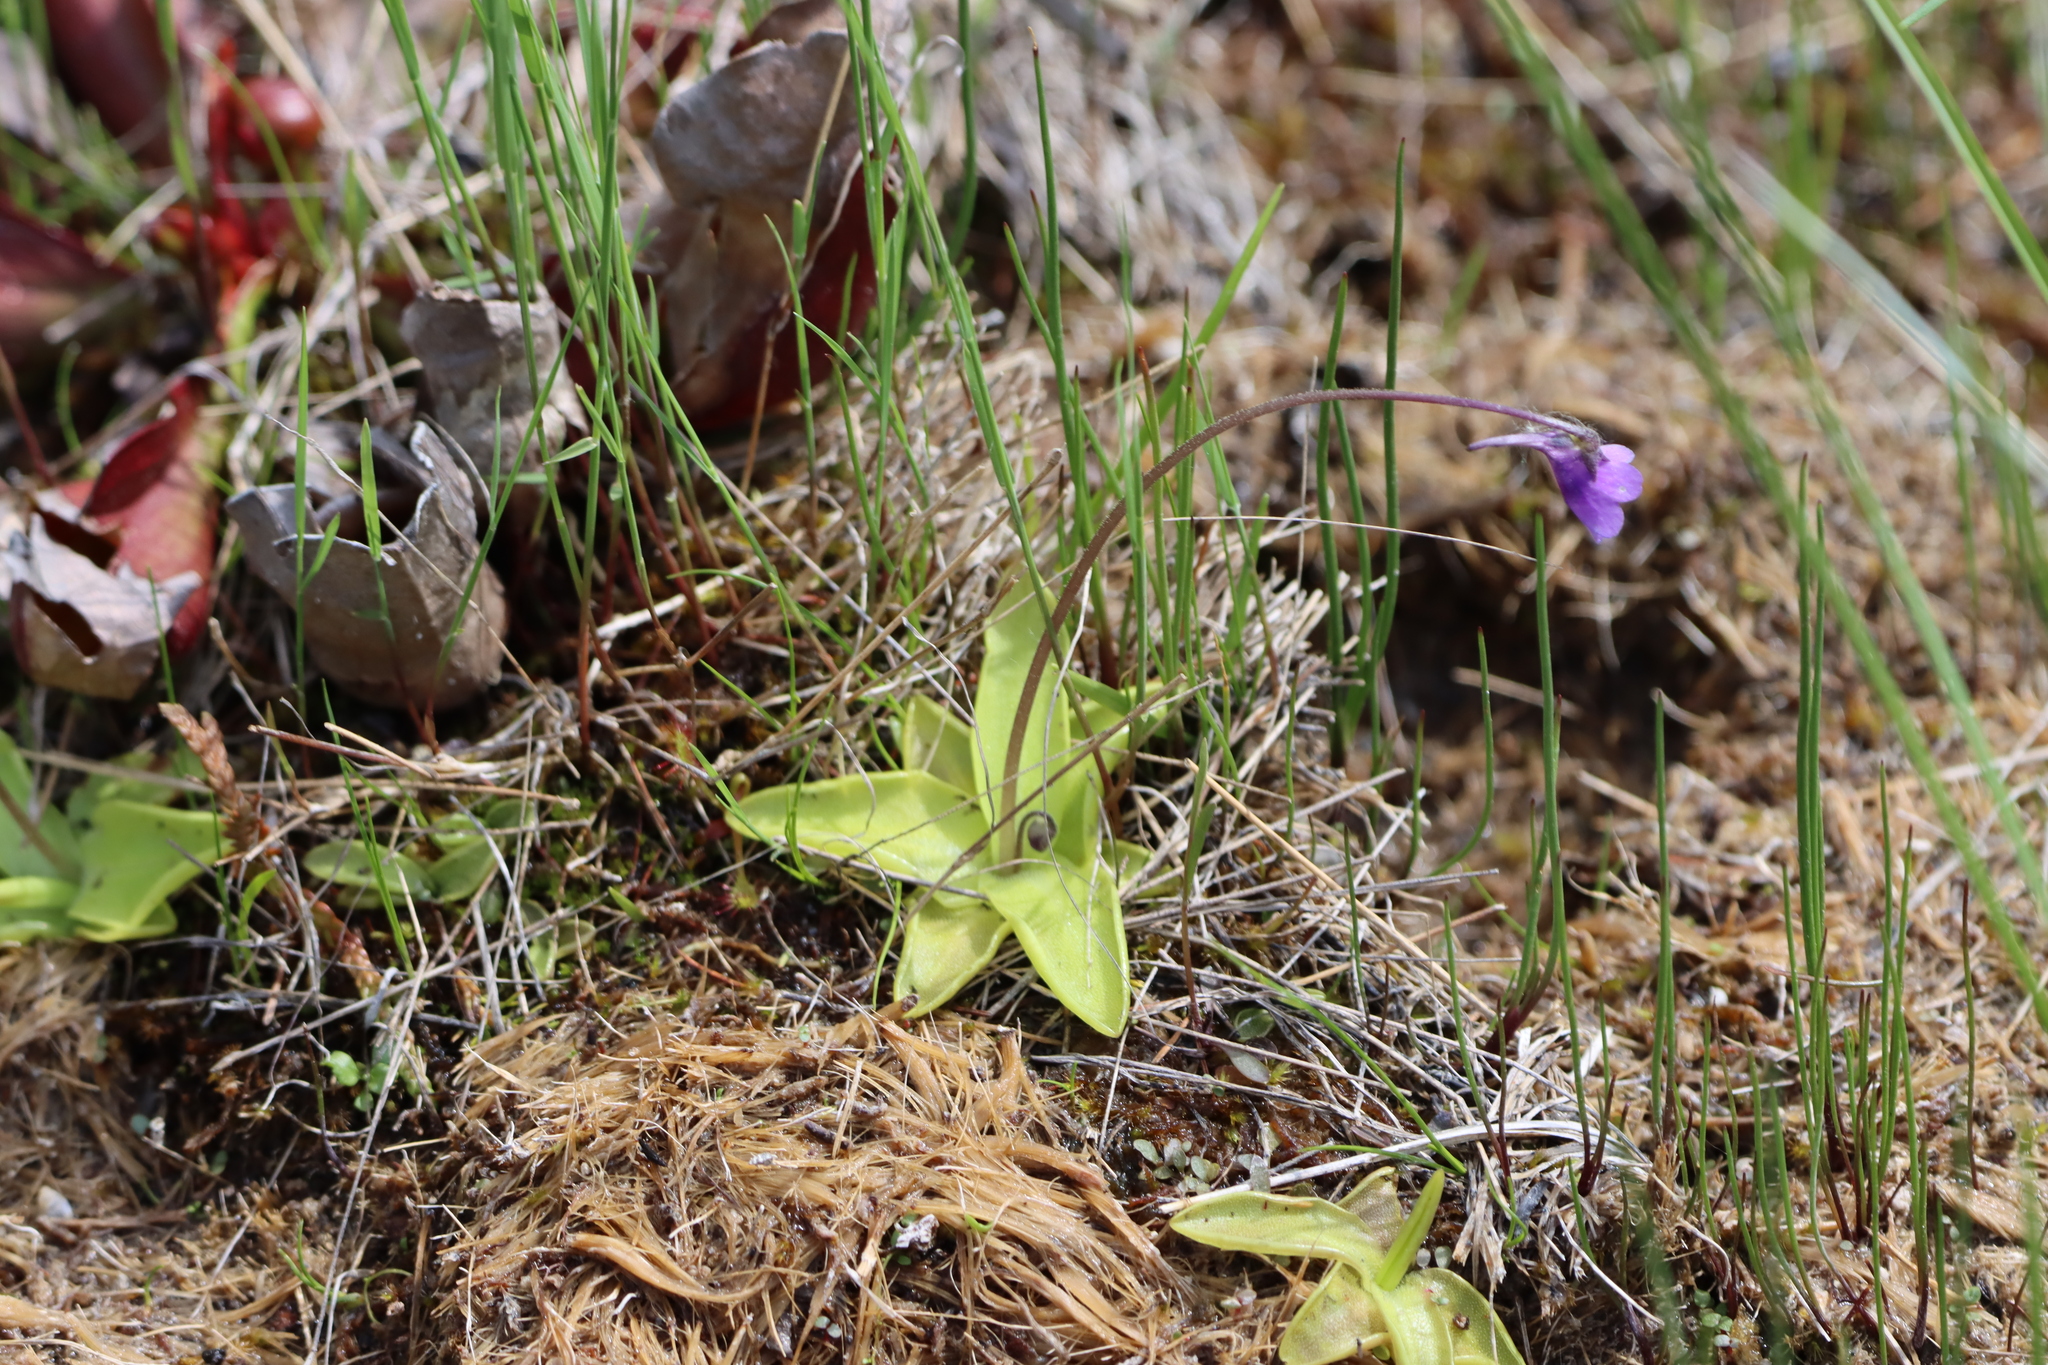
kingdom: Plantae
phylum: Tracheophyta
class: Magnoliopsida
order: Lamiales
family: Lentibulariaceae
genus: Pinguicula
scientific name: Pinguicula vulgaris
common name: Common butterwort
